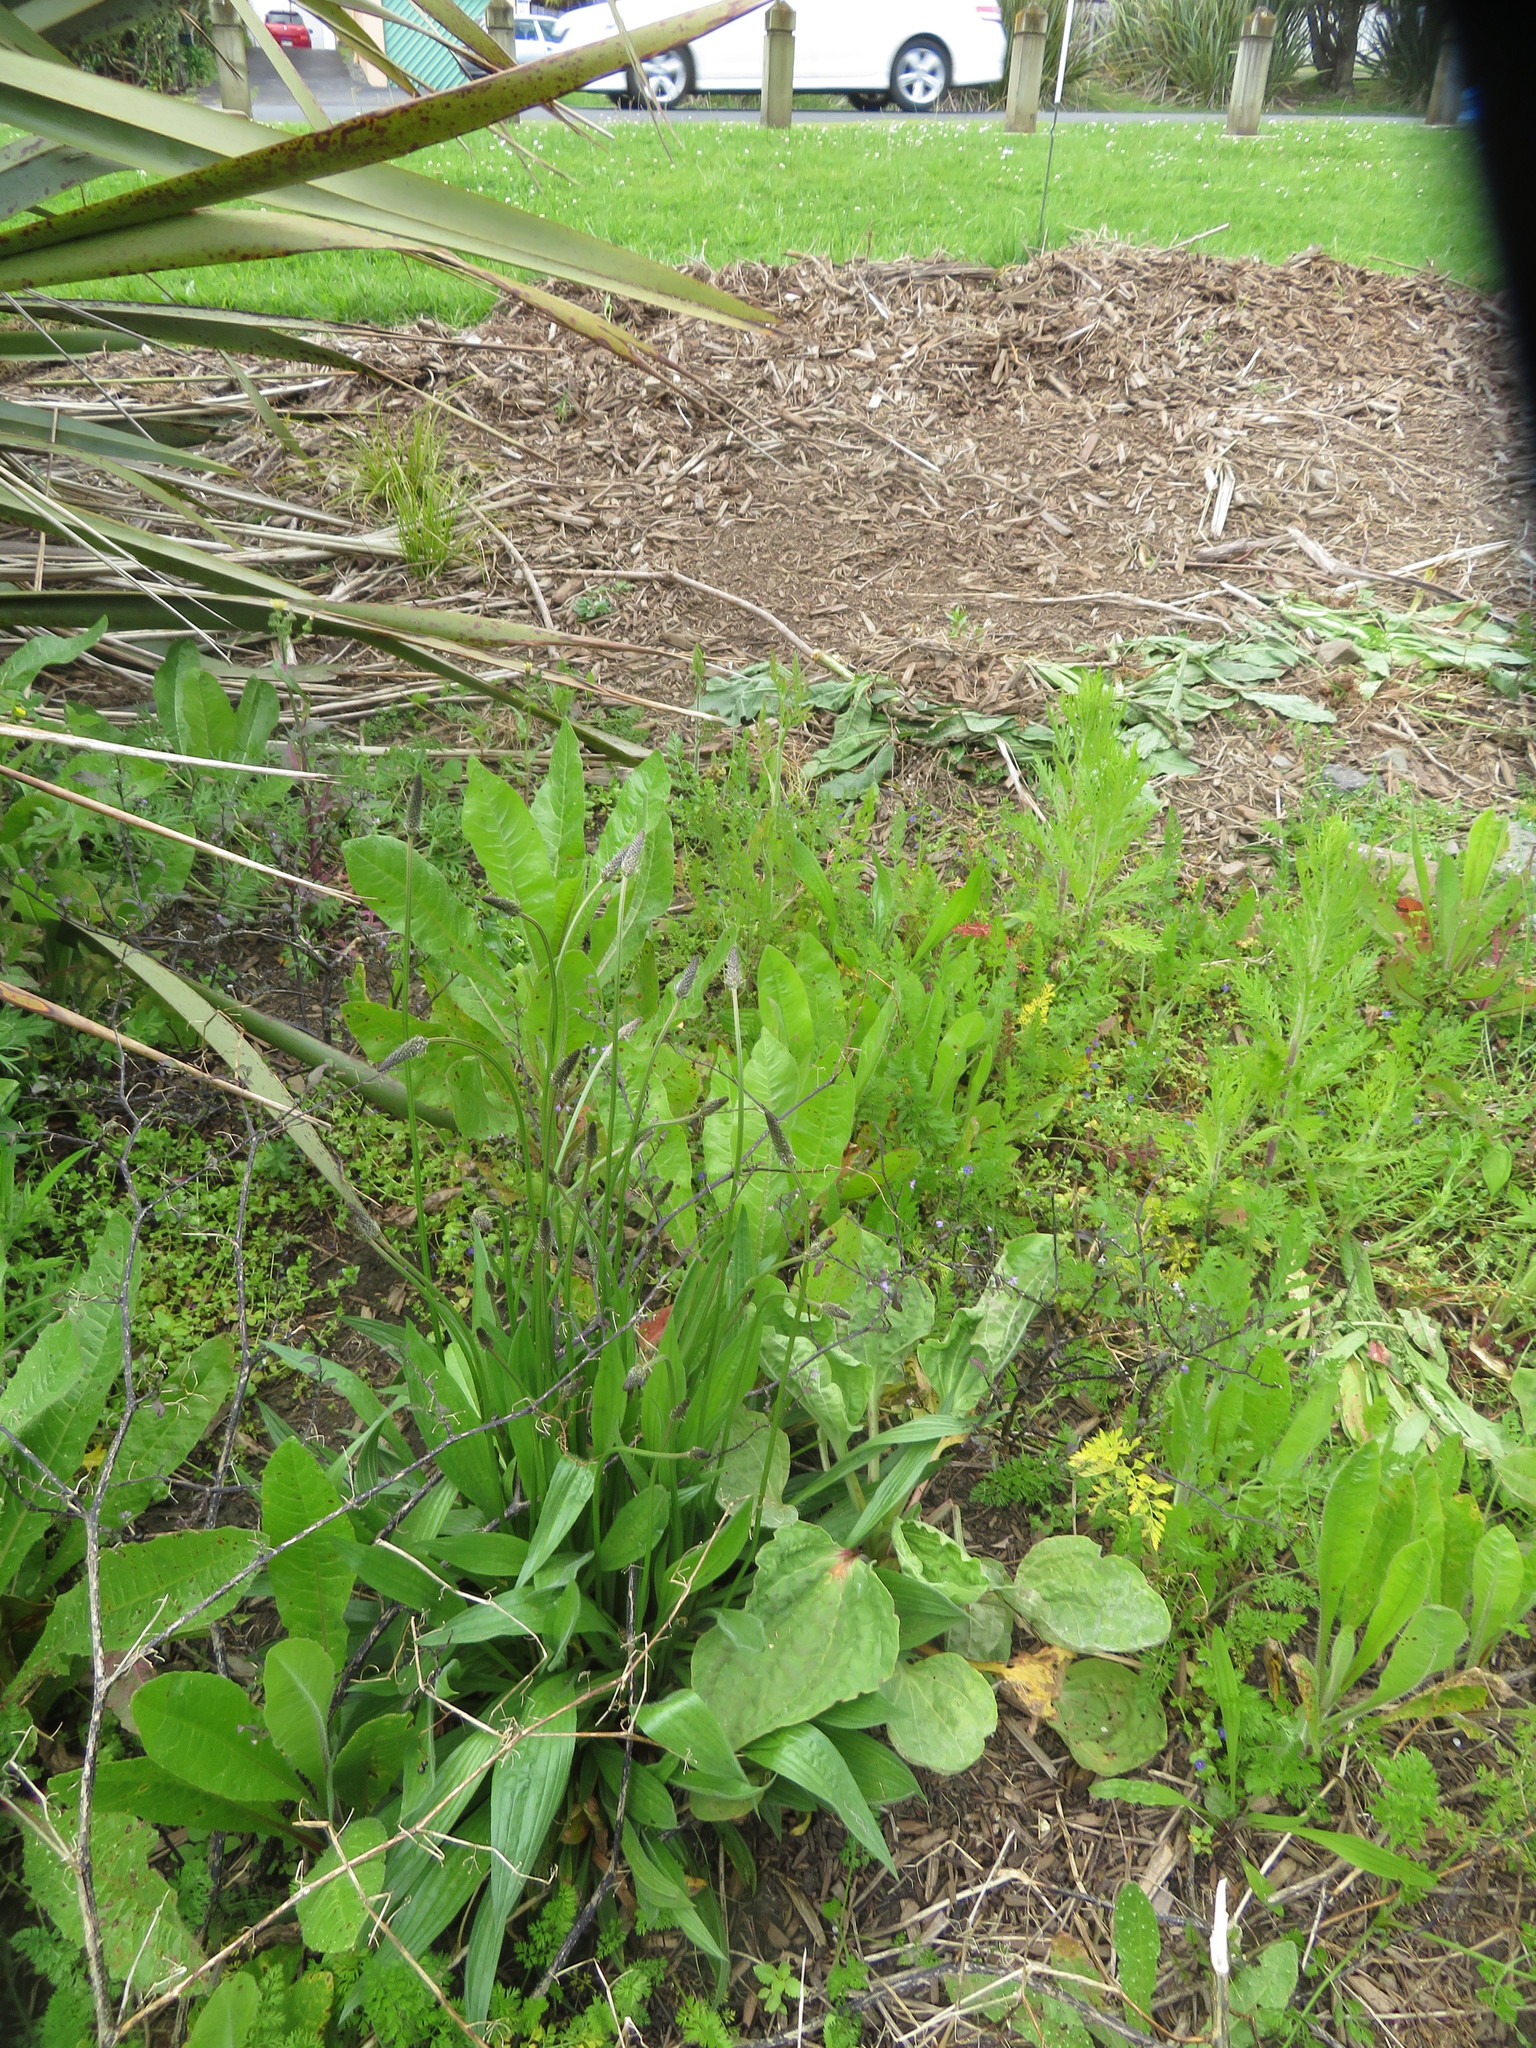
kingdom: Plantae
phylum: Tracheophyta
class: Magnoliopsida
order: Lamiales
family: Plantaginaceae
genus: Plantago
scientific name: Plantago lanceolata
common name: Ribwort plantain
